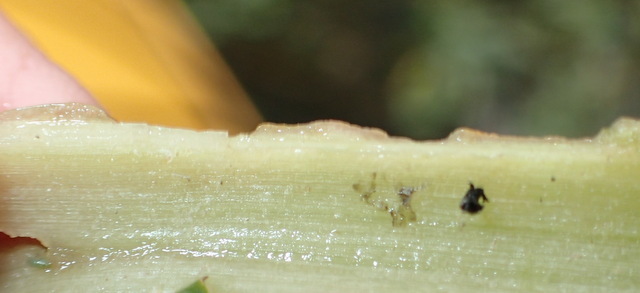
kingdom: Animalia
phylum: Arthropoda
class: Insecta
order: Coleoptera
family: Chrysomelidae
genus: Agasicles
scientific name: Agasicles hygrophila
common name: Alligatorweed flea beetle
